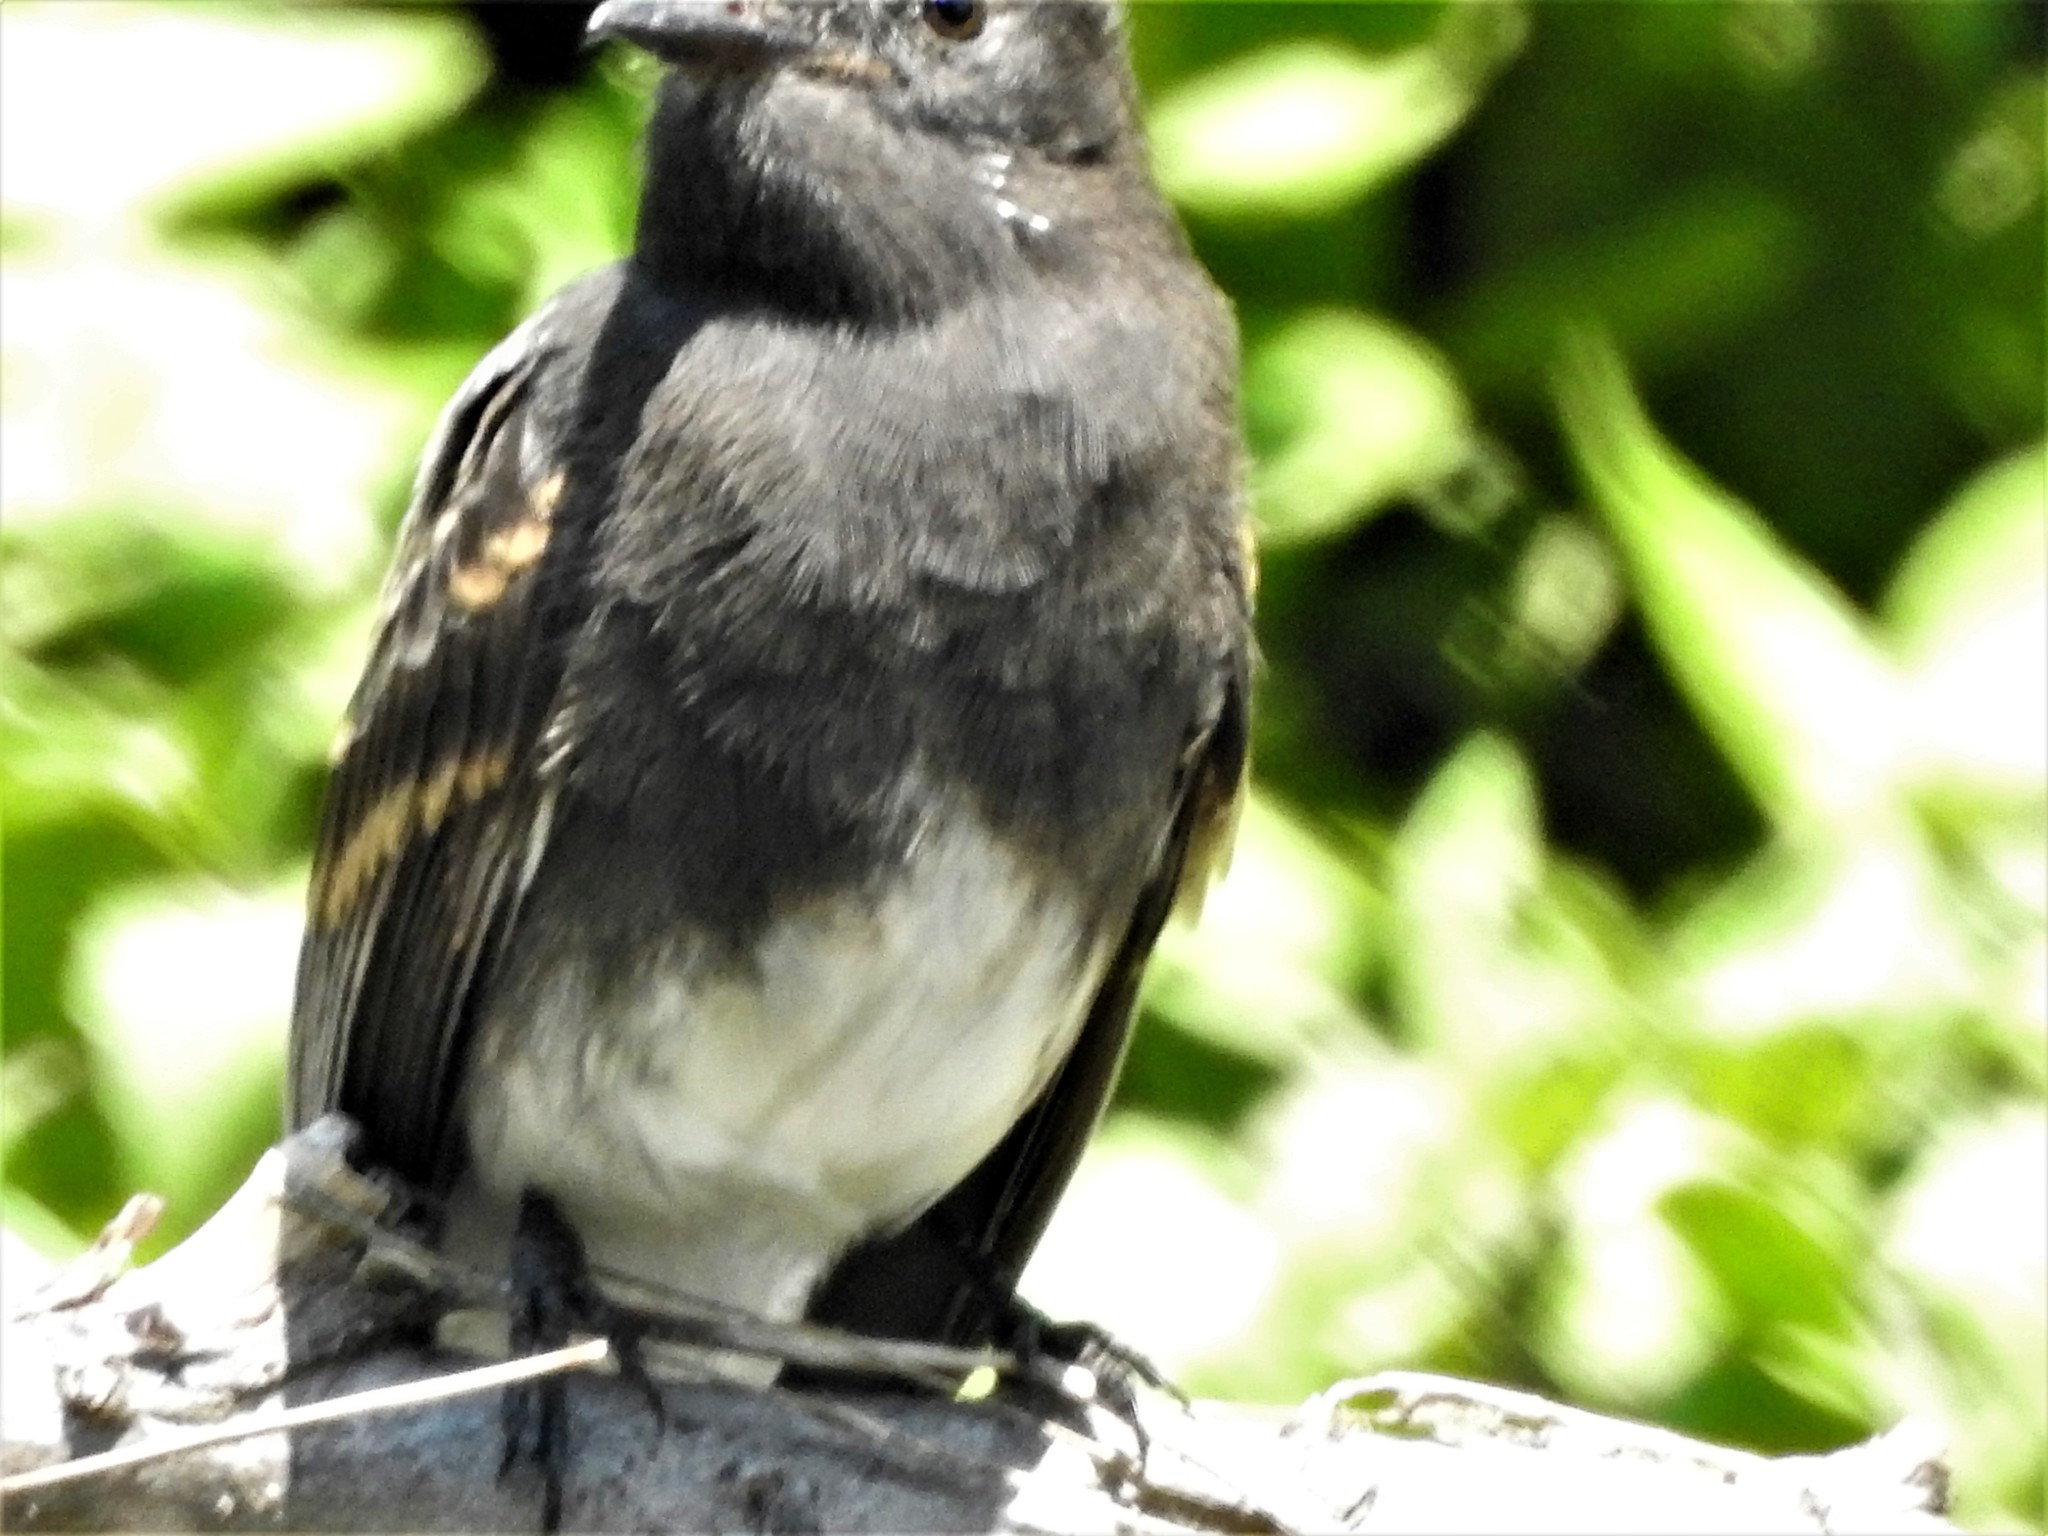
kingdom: Animalia
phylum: Chordata
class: Aves
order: Passeriformes
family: Tyrannidae
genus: Sayornis
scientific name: Sayornis nigricans
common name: Black phoebe
